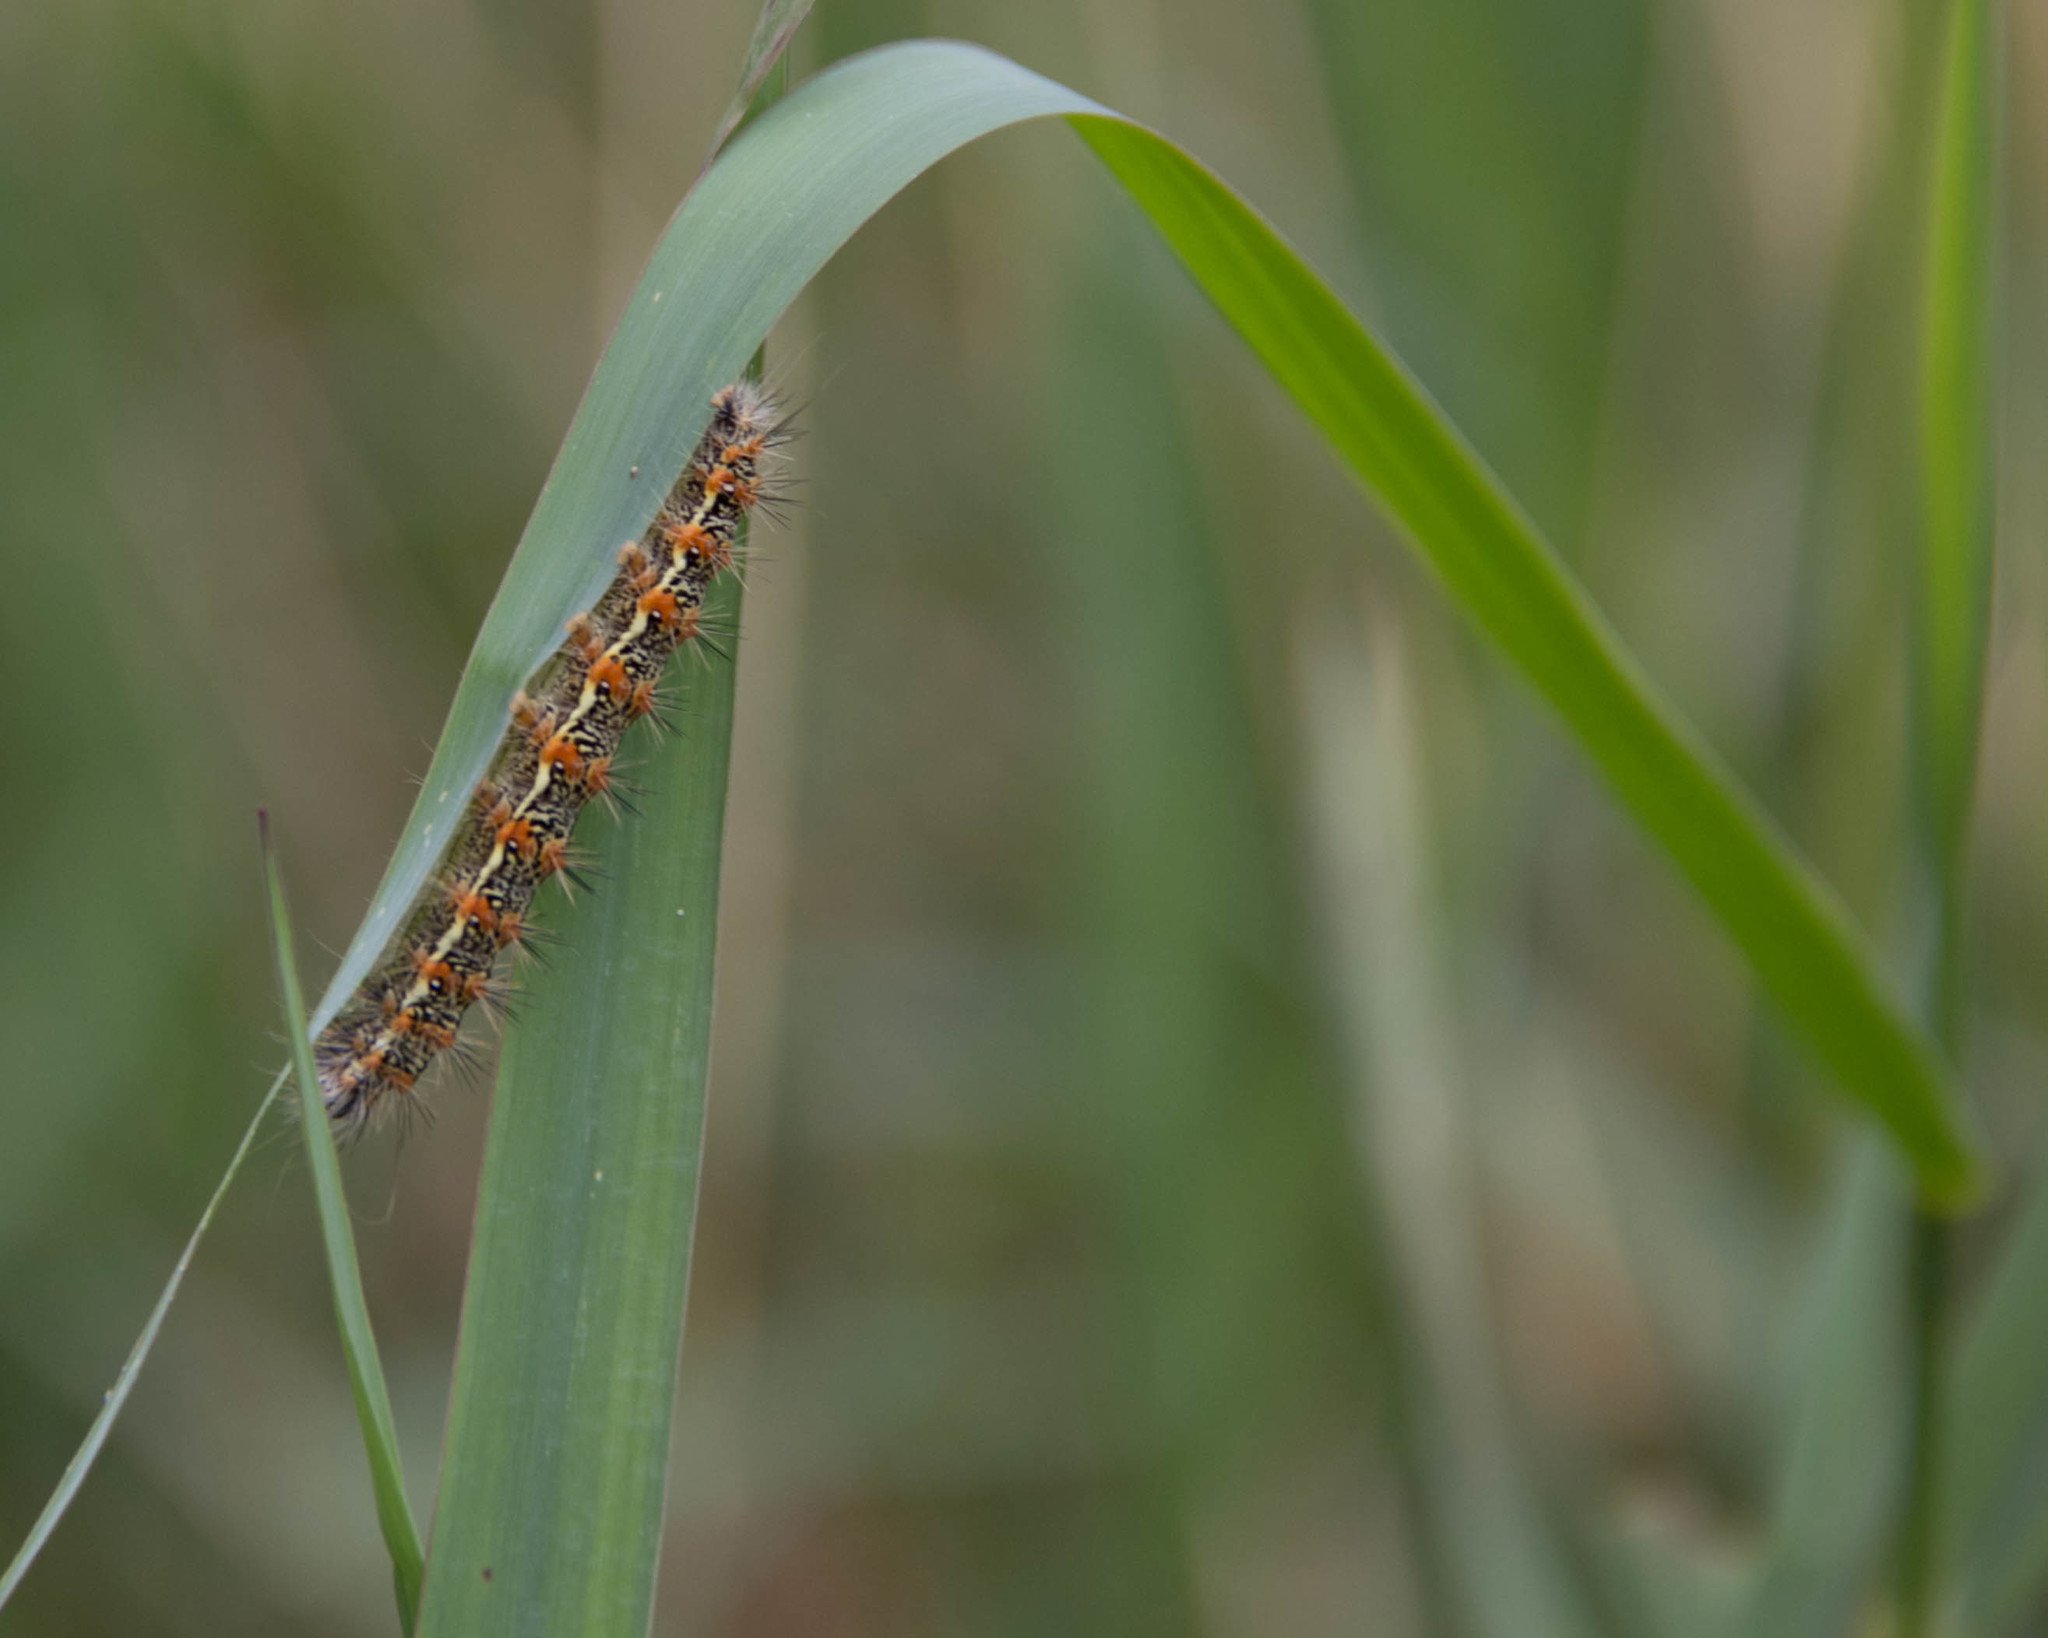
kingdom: Animalia
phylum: Arthropoda
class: Insecta
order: Lepidoptera
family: Noctuidae
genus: Acronicta
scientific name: Acronicta insularis
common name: Henry's marsh moth
